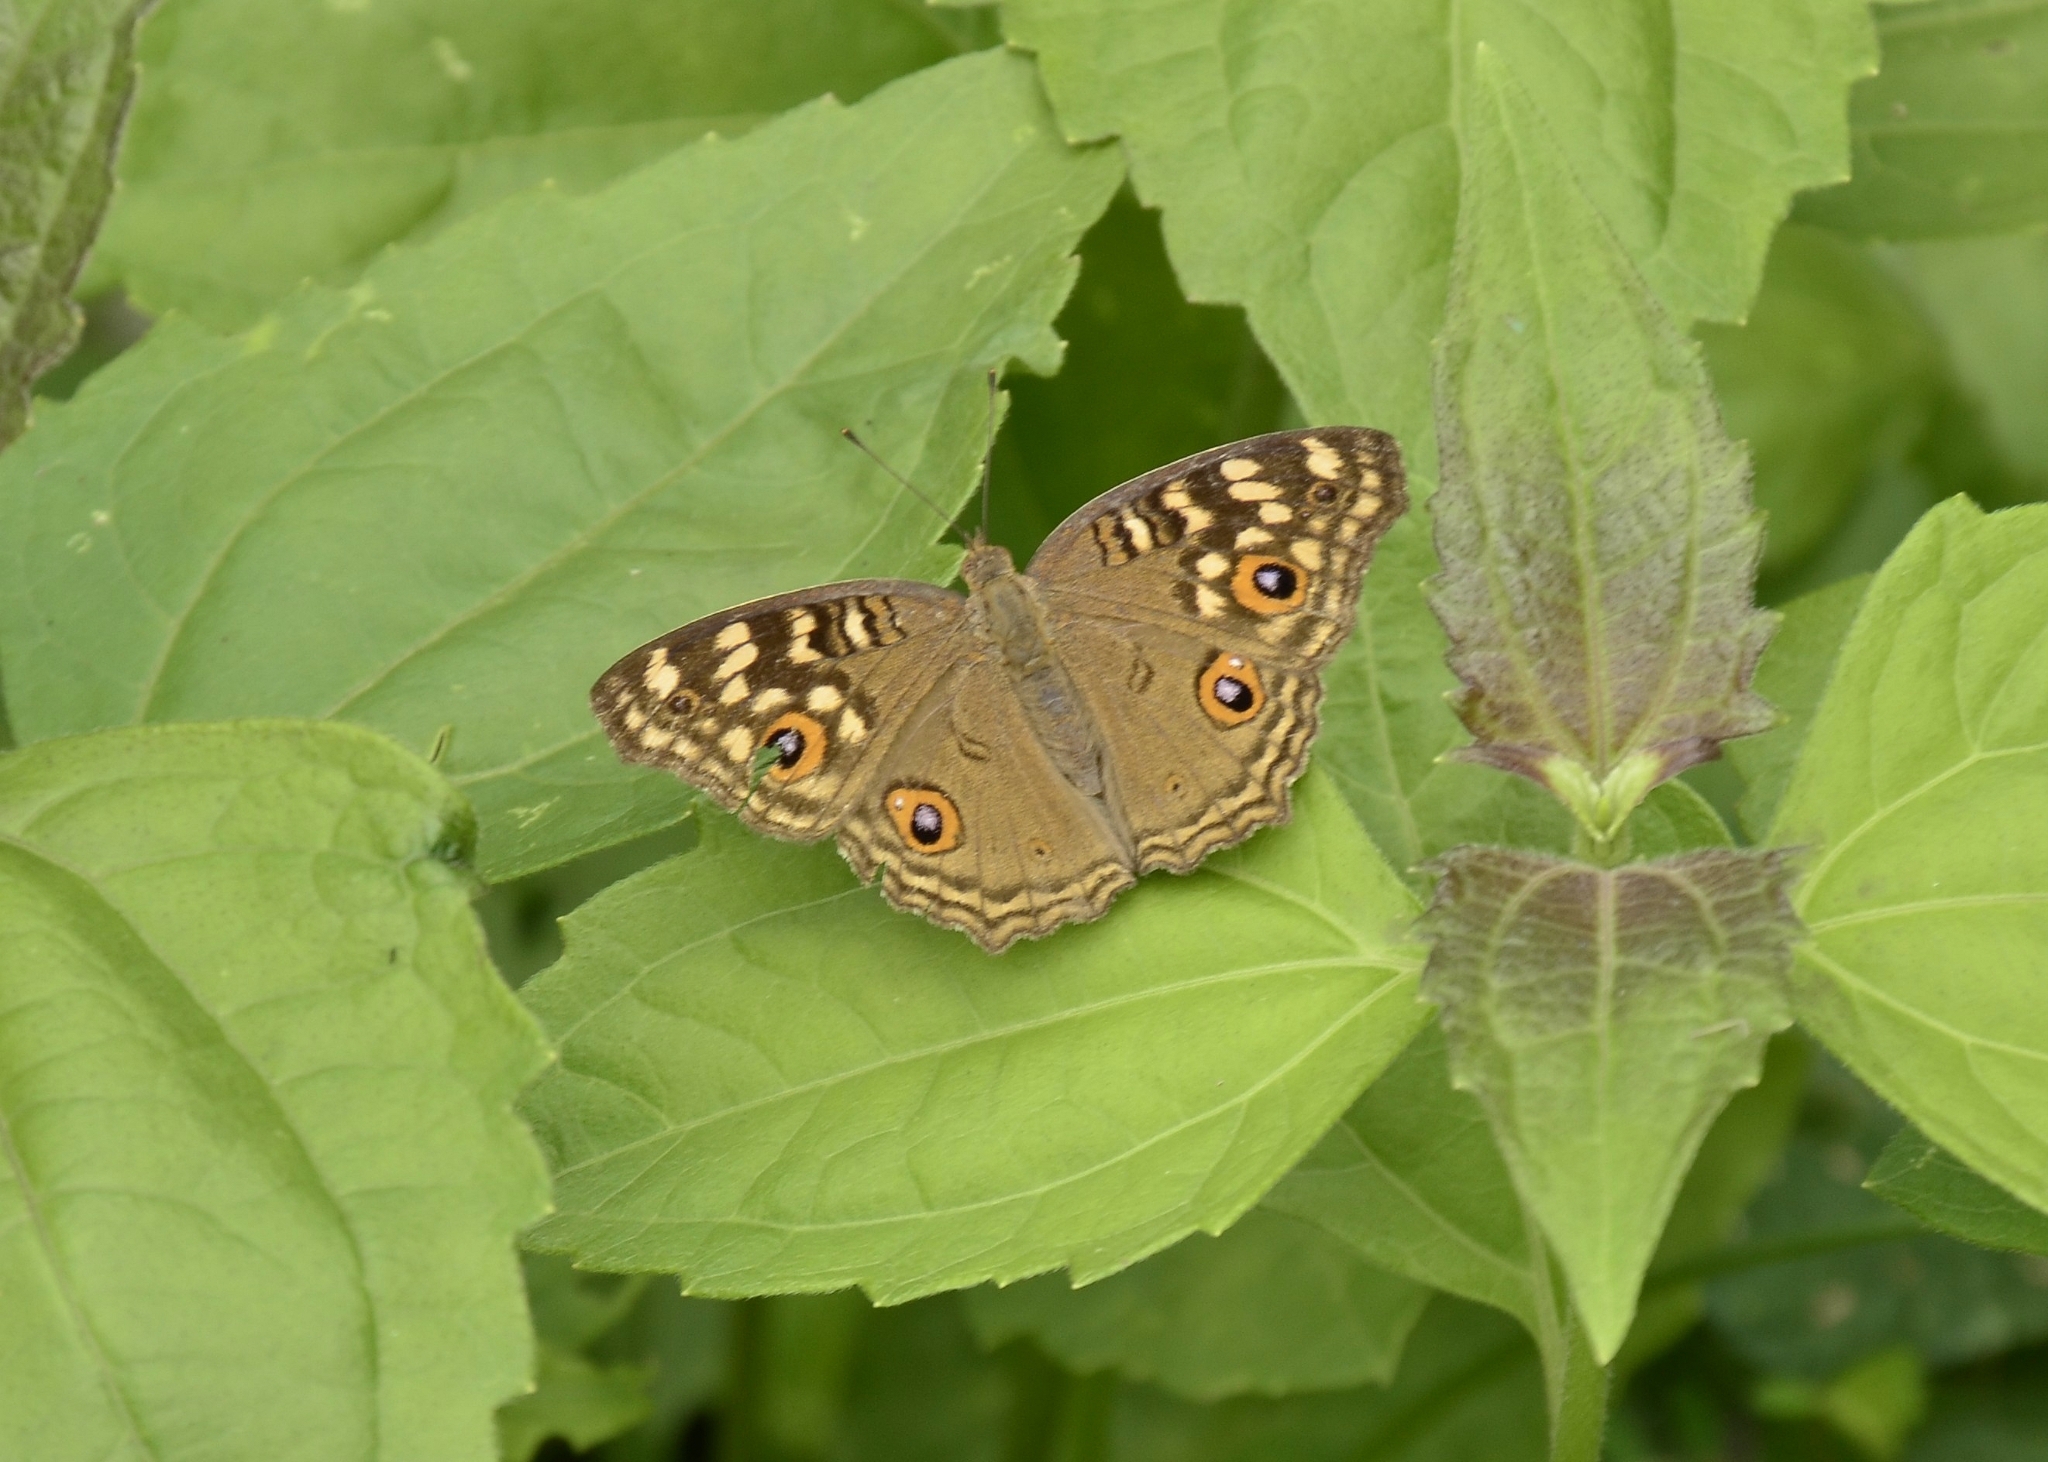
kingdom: Animalia
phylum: Arthropoda
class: Insecta
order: Lepidoptera
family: Nymphalidae
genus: Junonia
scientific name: Junonia lemonias
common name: Lemon pansy
